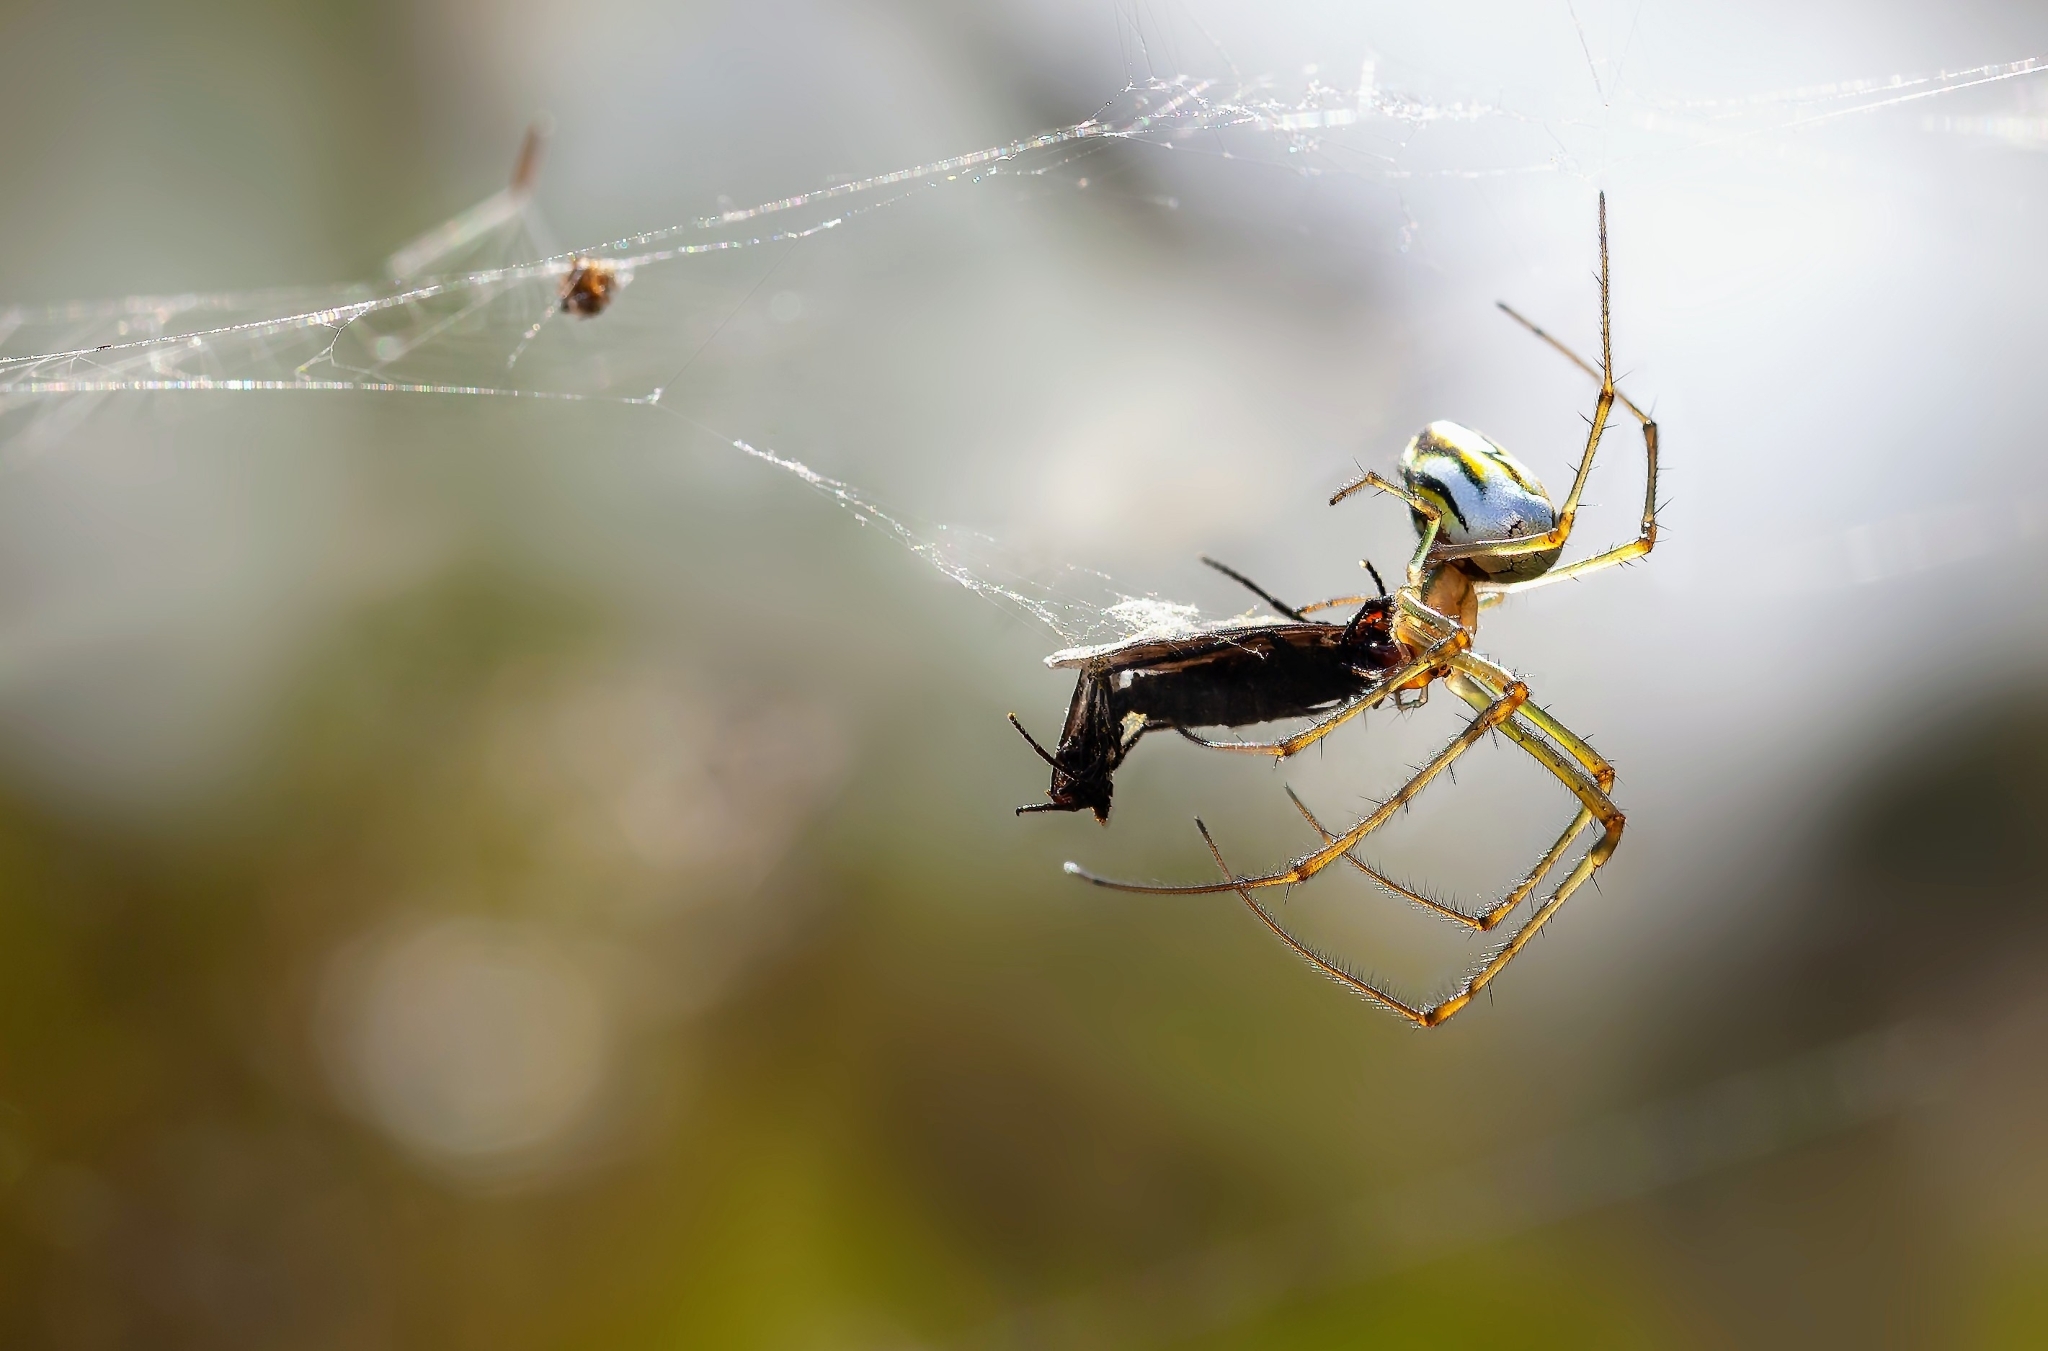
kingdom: Animalia
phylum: Arthropoda
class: Arachnida
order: Araneae
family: Tetragnathidae
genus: Leucauge
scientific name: Leucauge argyra
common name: Longjawed orb weavers
